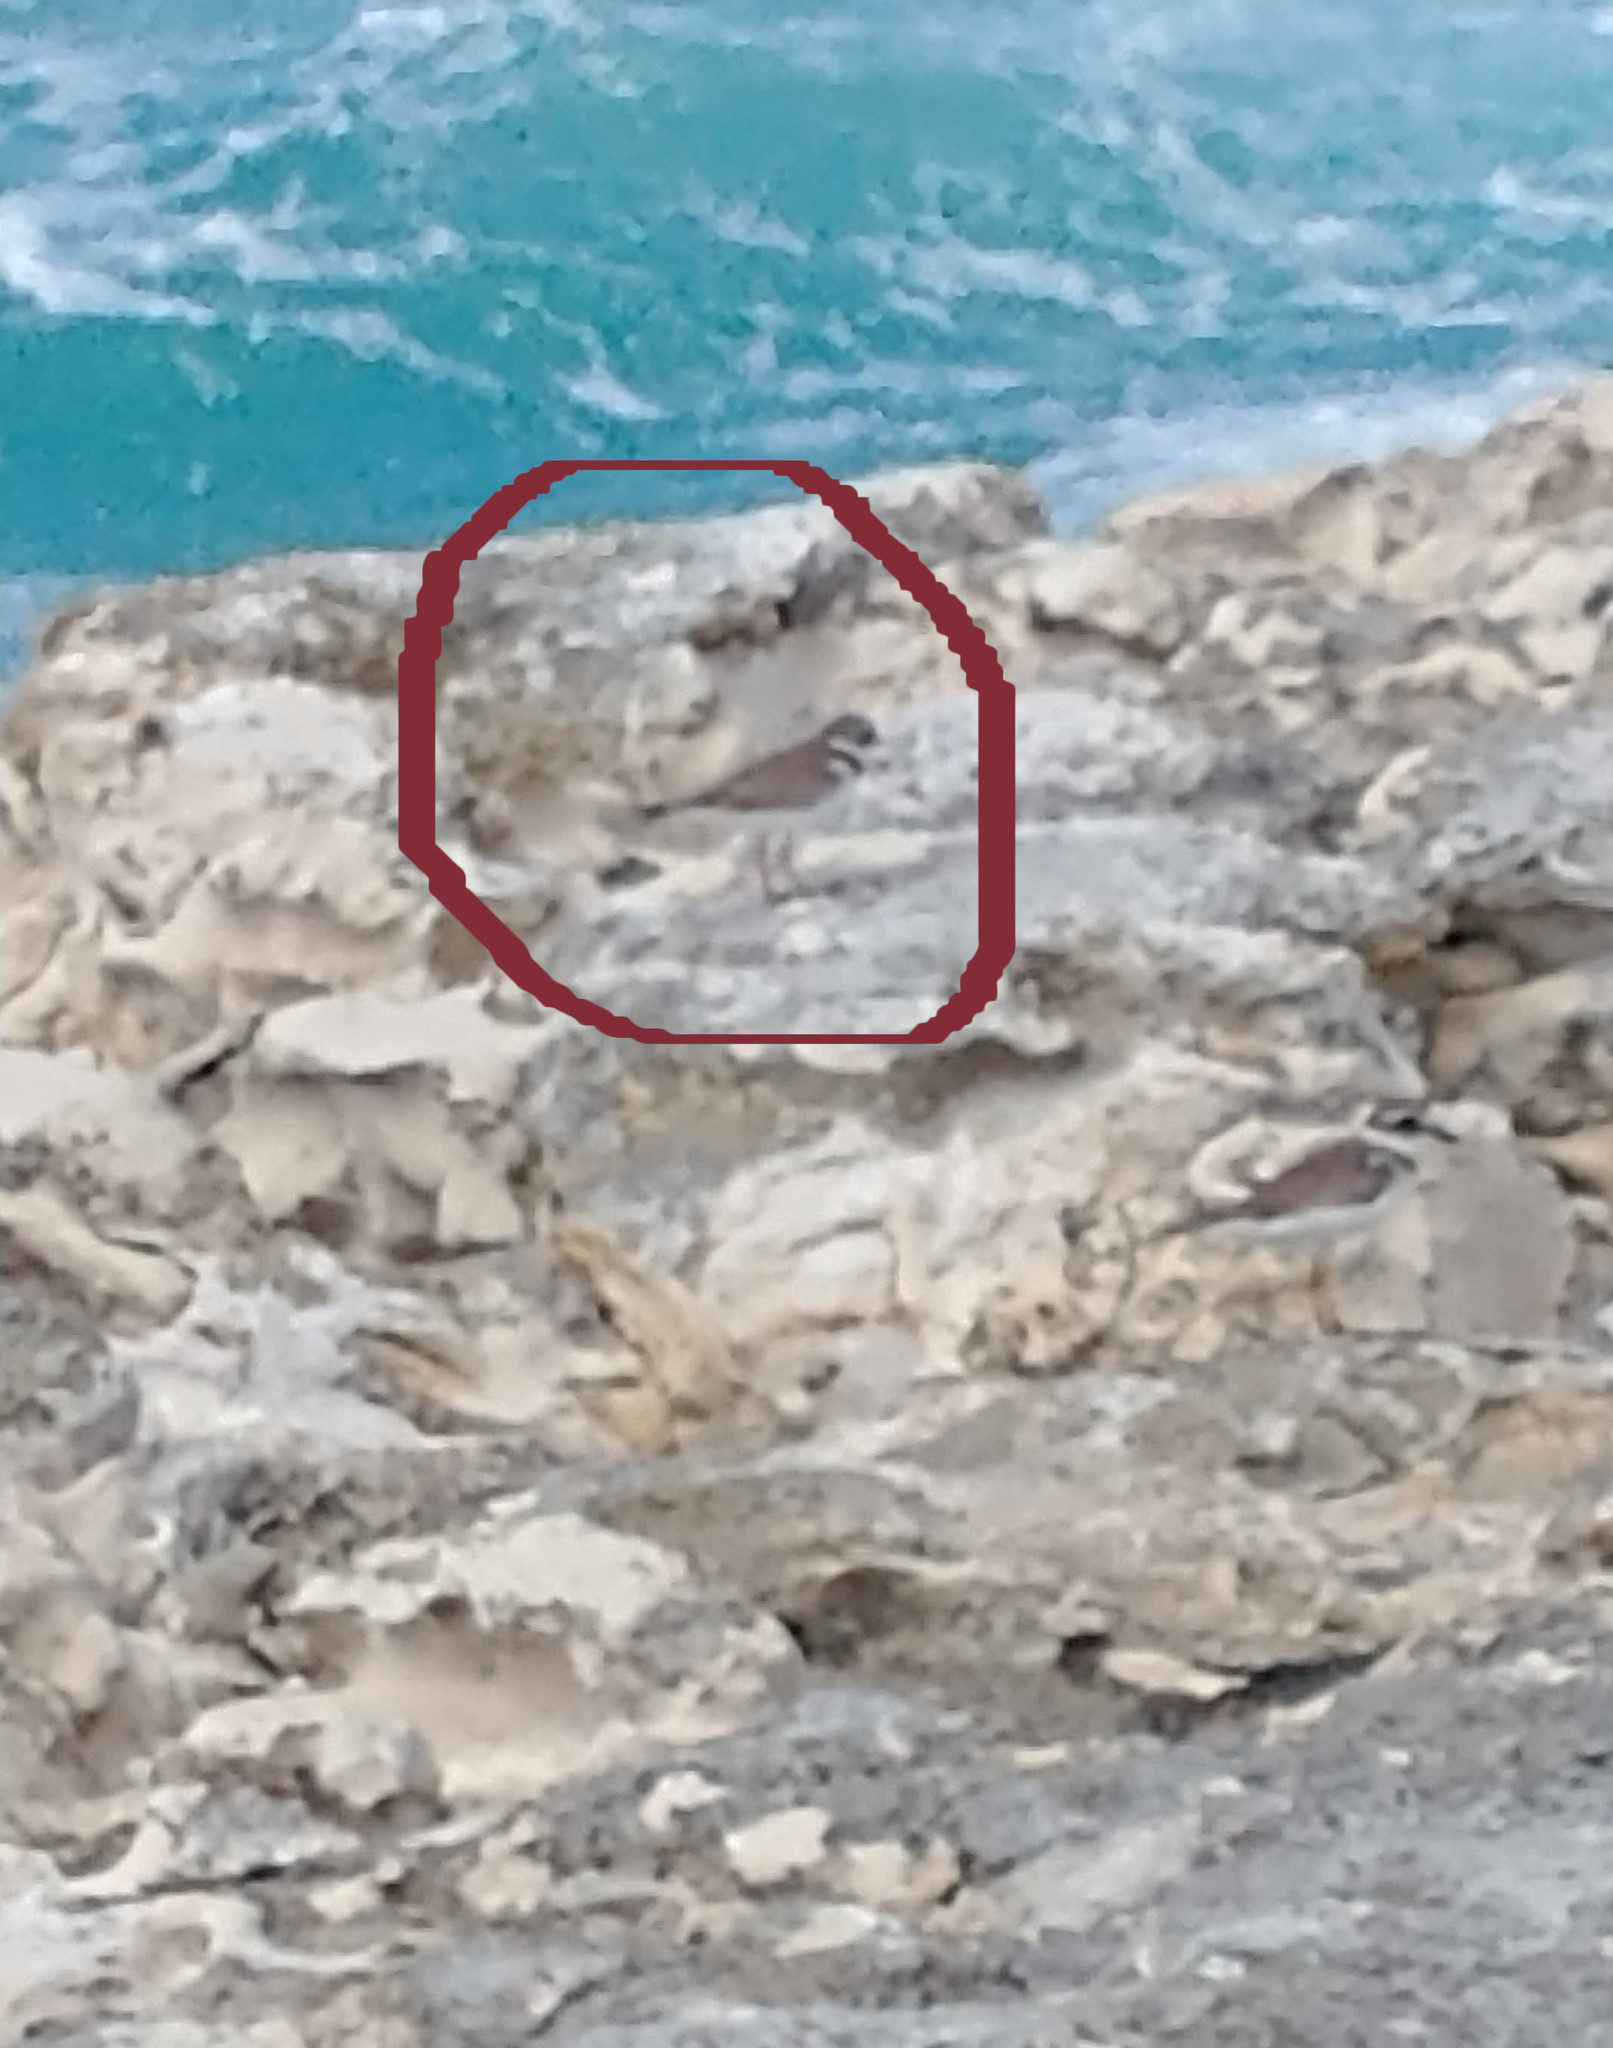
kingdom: Animalia
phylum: Chordata
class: Aves
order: Charadriiformes
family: Charadriidae
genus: Charadrius
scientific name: Charadrius vociferus
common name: Killdeer
